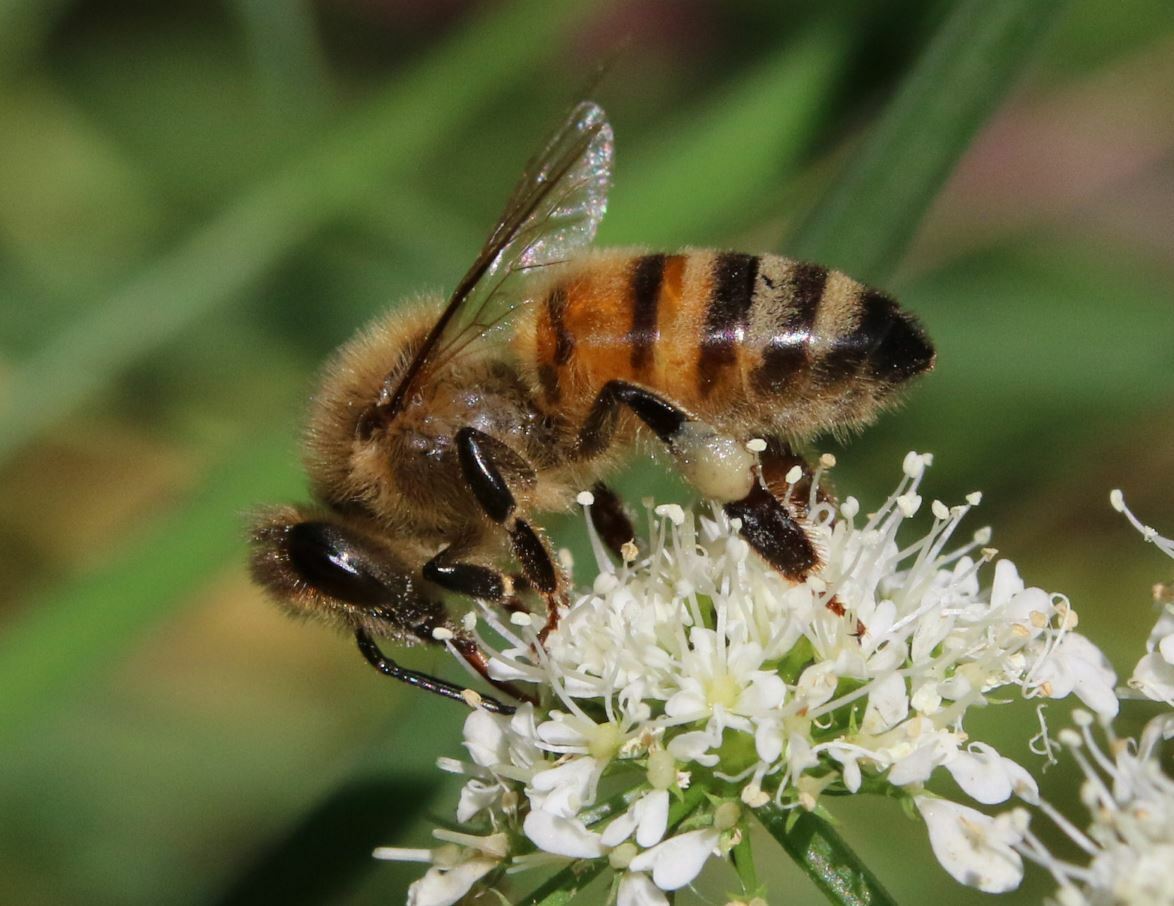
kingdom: Animalia
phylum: Arthropoda
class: Insecta
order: Hymenoptera
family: Apidae
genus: Apis
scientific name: Apis mellifera
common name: Honey bee
